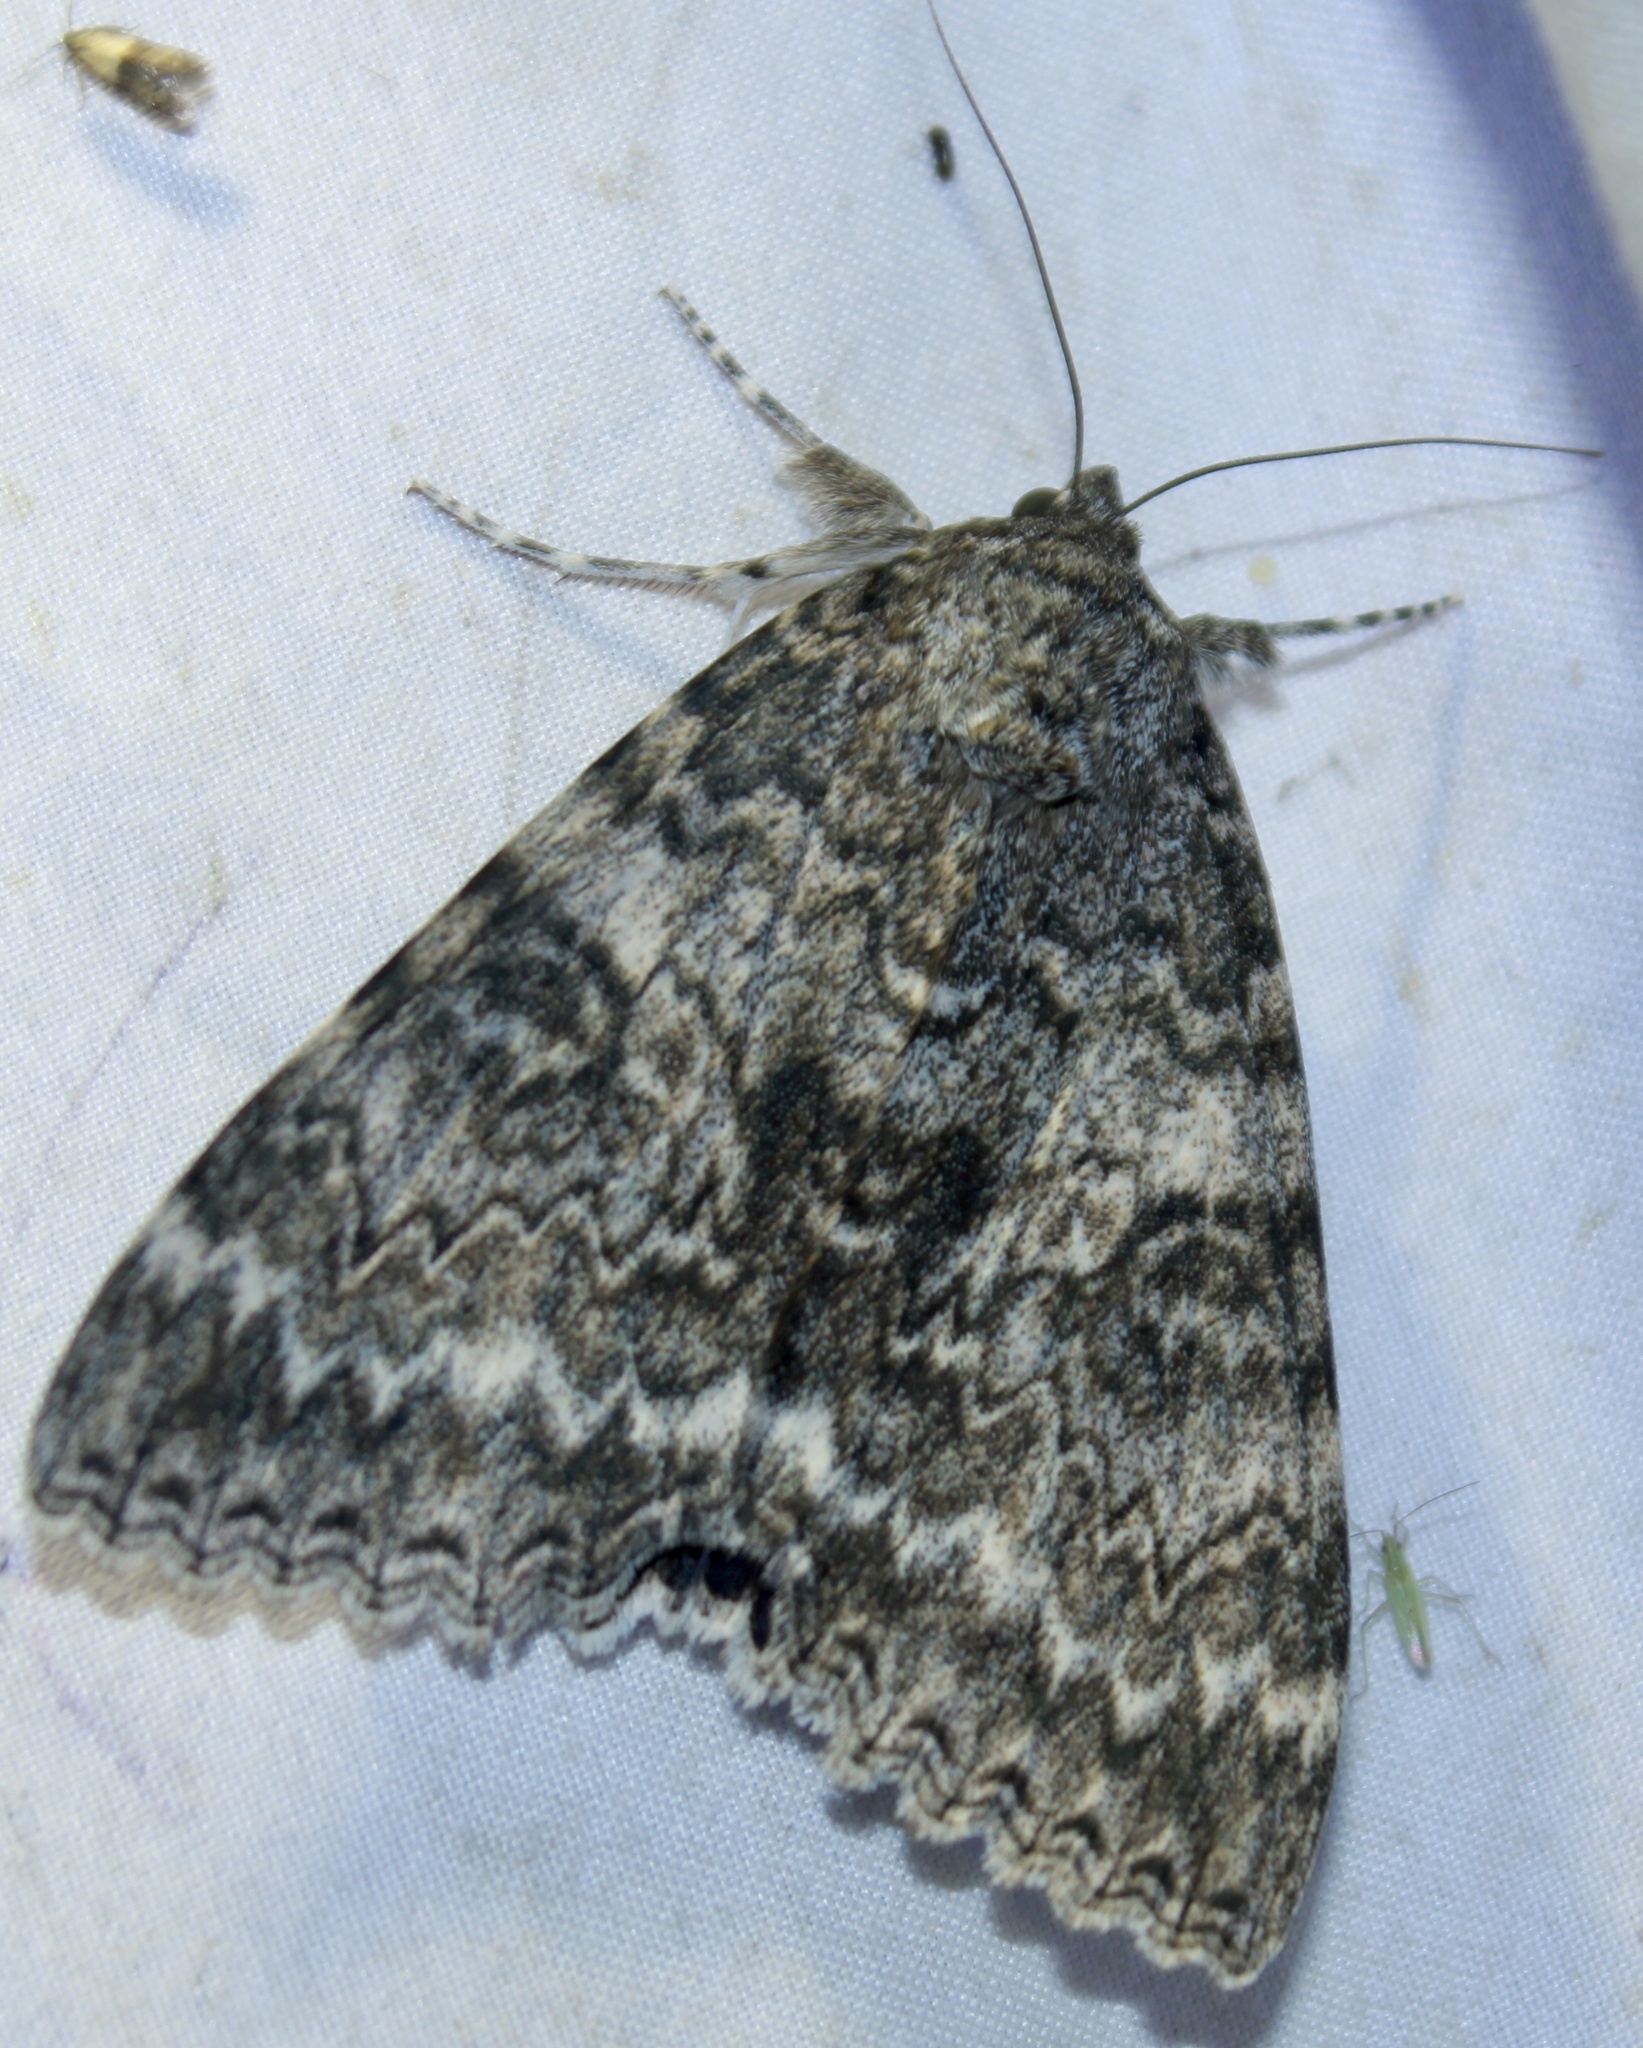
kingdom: Animalia
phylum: Arthropoda
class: Insecta
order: Lepidoptera
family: Erebidae
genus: Catocala
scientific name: Catocala unijuga
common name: Once-married underwing
